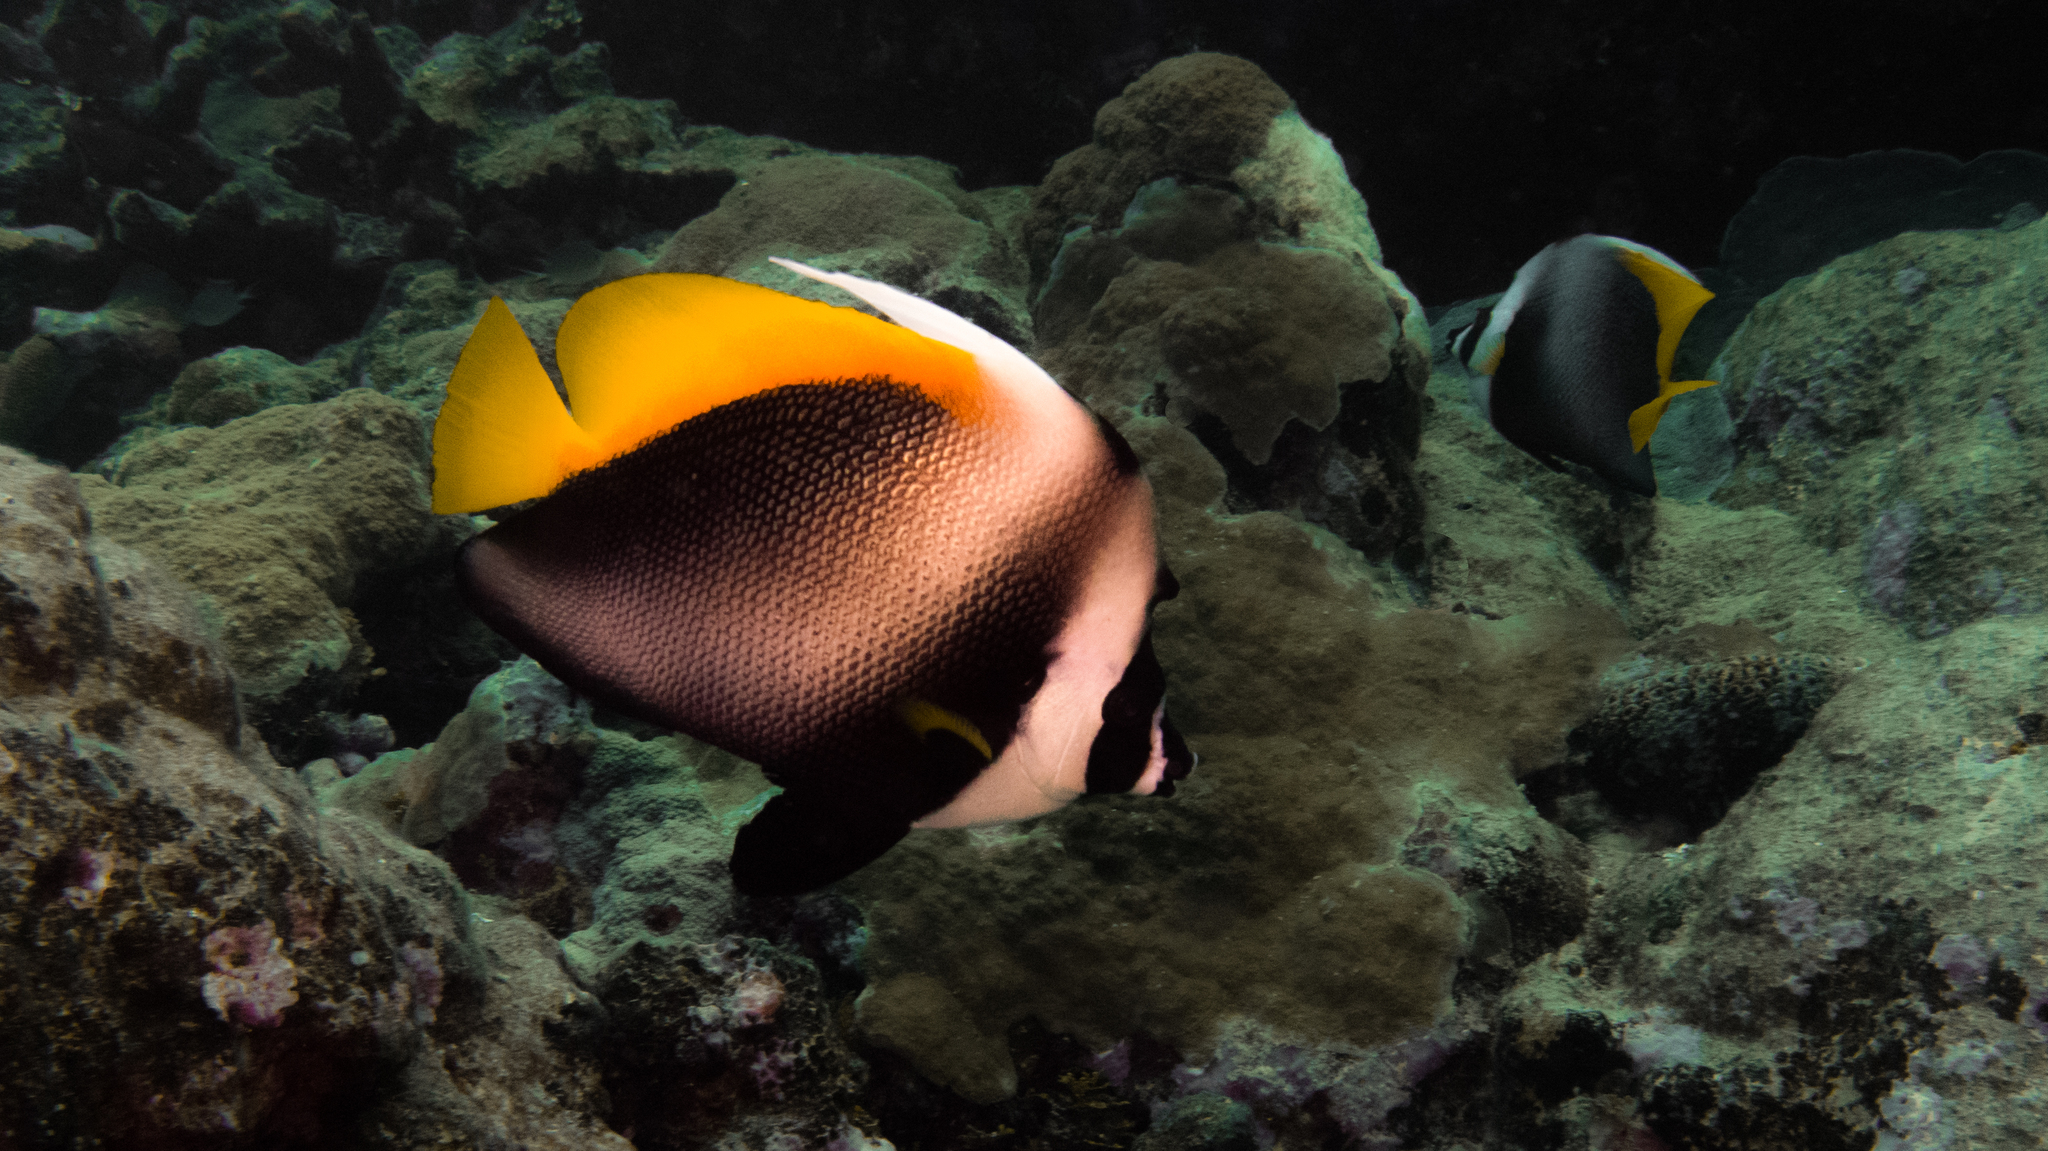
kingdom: Animalia
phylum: Chordata
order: Perciformes
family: Chaetodontidae
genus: Heniochus
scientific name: Heniochus singularius
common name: Singular bannerfish
